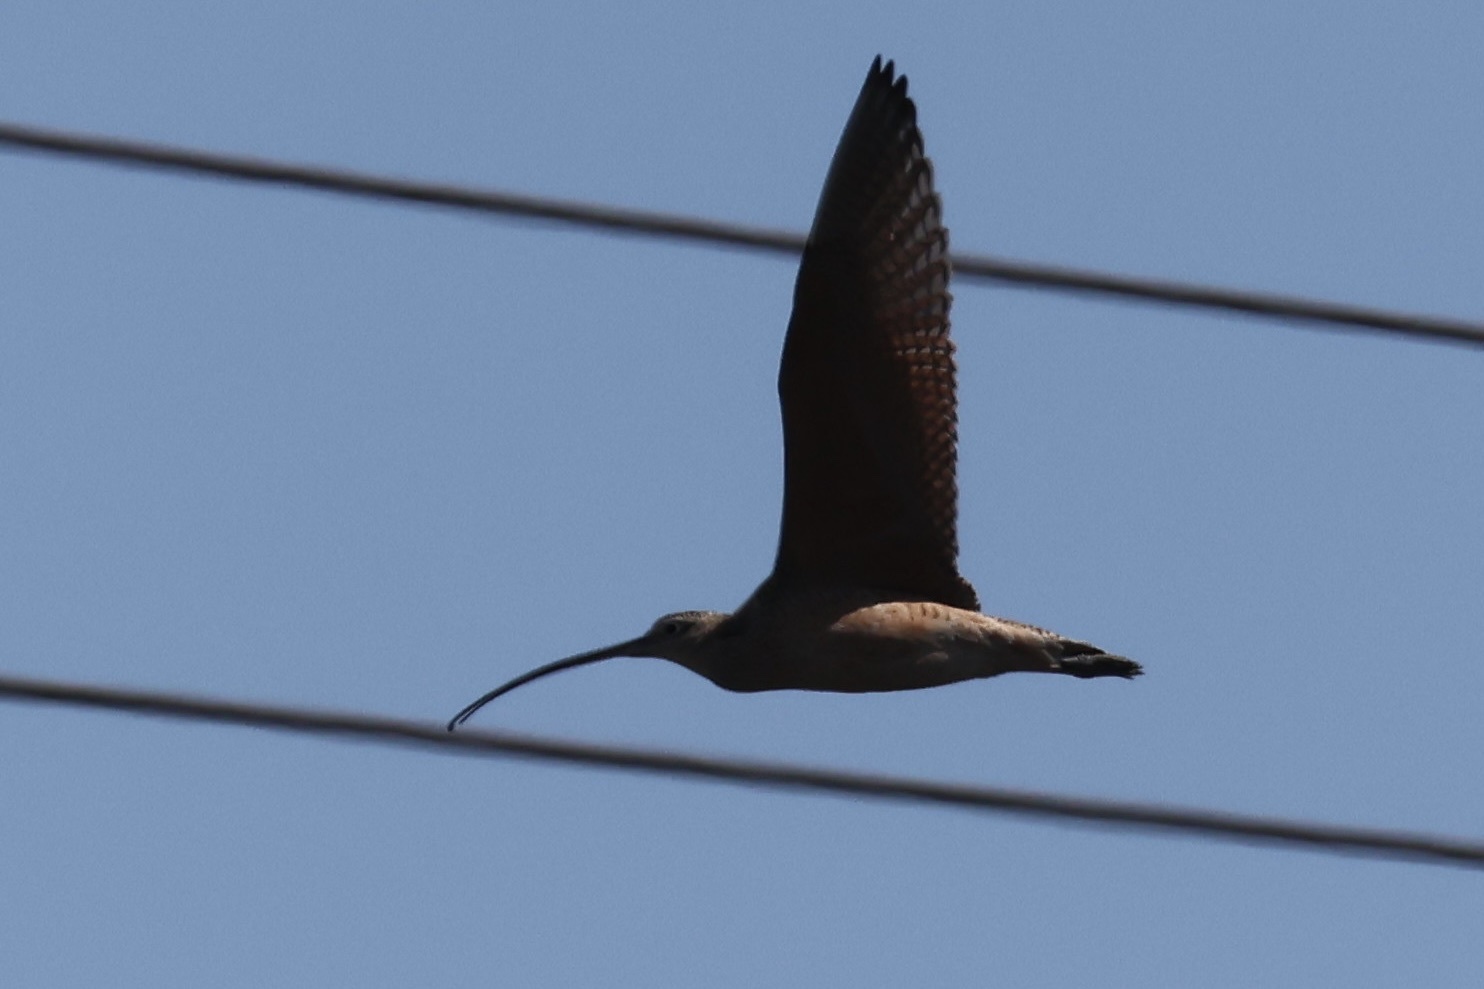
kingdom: Animalia
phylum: Chordata
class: Aves
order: Charadriiformes
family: Scolopacidae
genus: Numenius
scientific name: Numenius americanus
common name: Long-billed curlew
